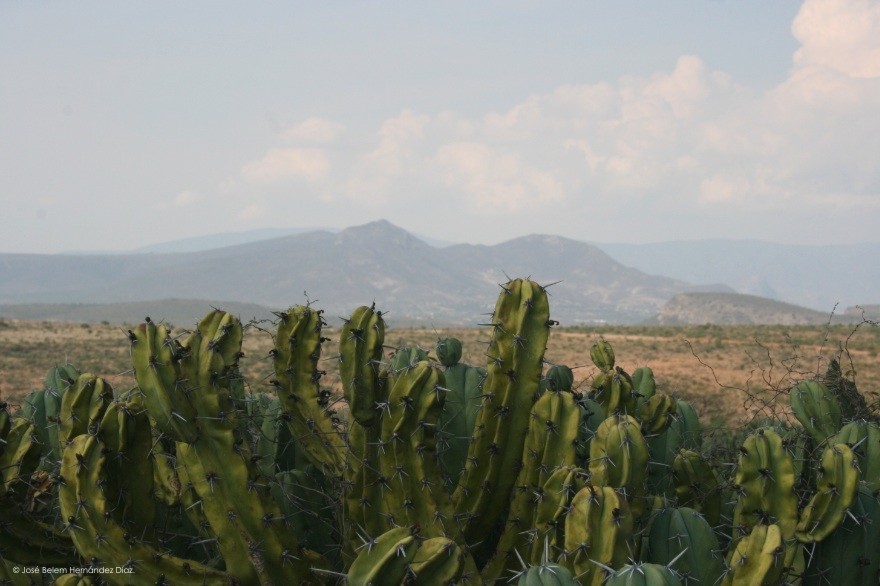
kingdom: Plantae
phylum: Tracheophyta
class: Magnoliopsida
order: Caryophyllales
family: Cactaceae
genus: Myrtillocactus
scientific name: Myrtillocactus geometrizans
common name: Bilberry cactus
